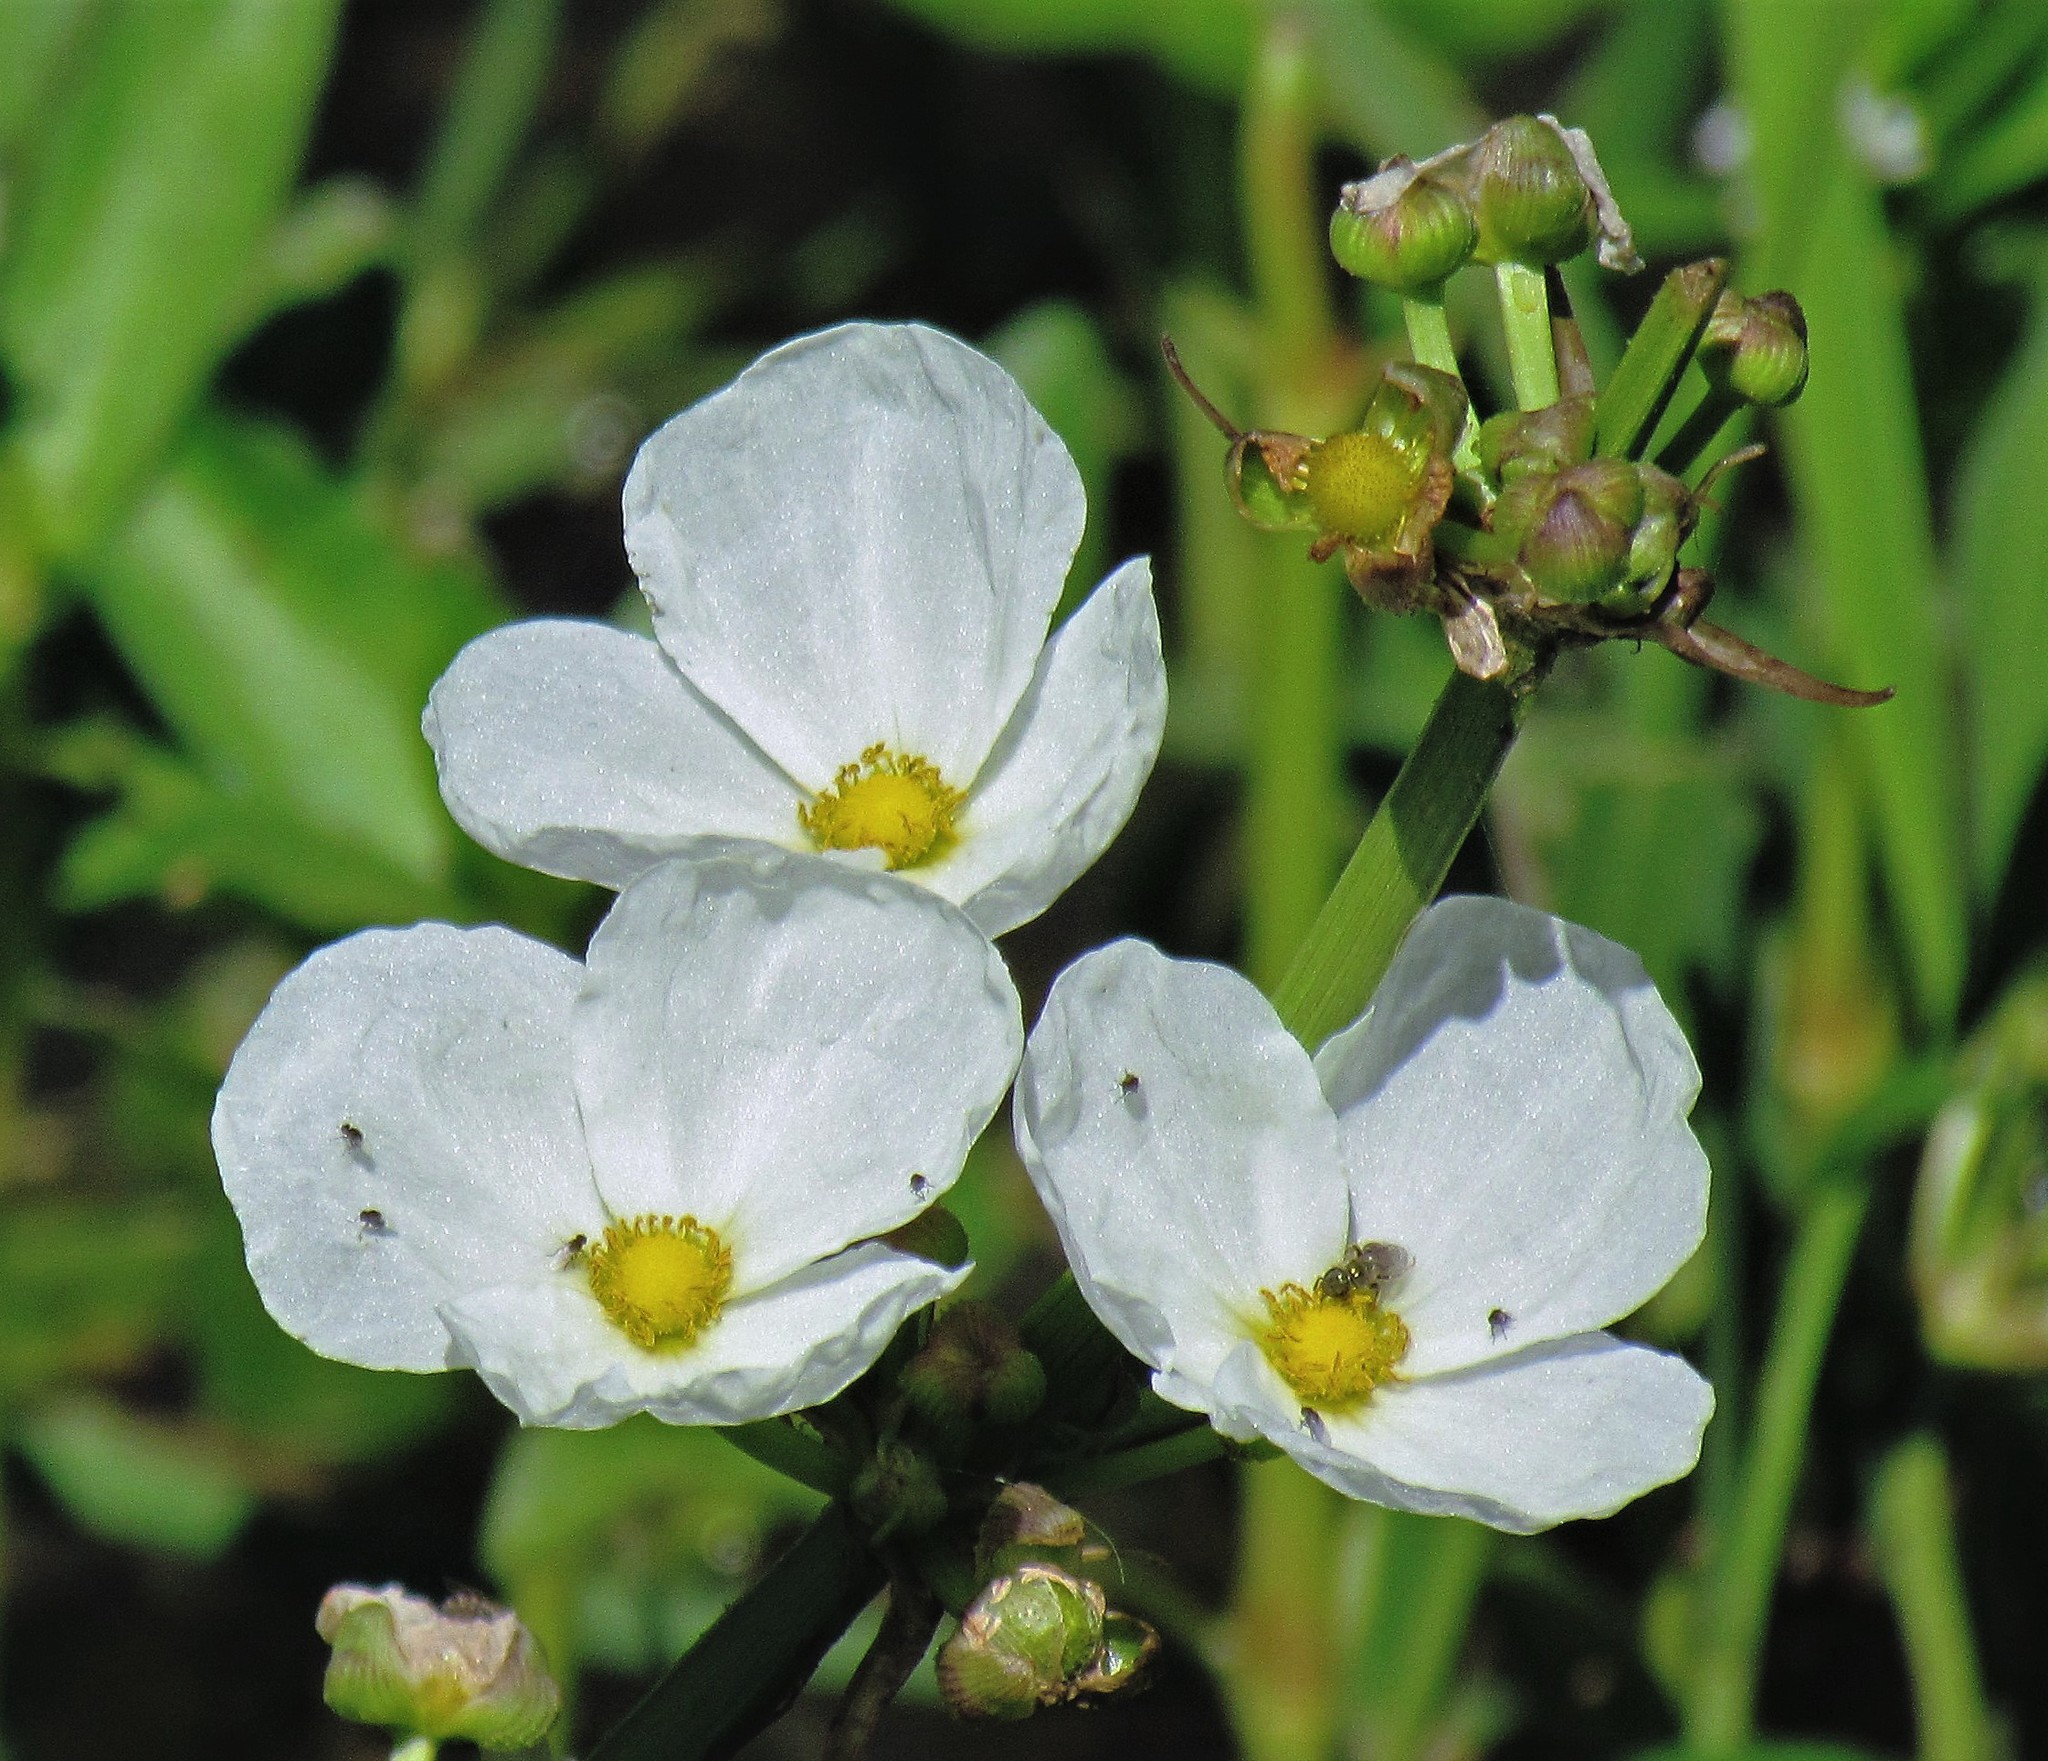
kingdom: Plantae
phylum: Tracheophyta
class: Liliopsida
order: Alismatales
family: Alismataceae
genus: Aquarius
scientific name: Aquarius grandiflorus
